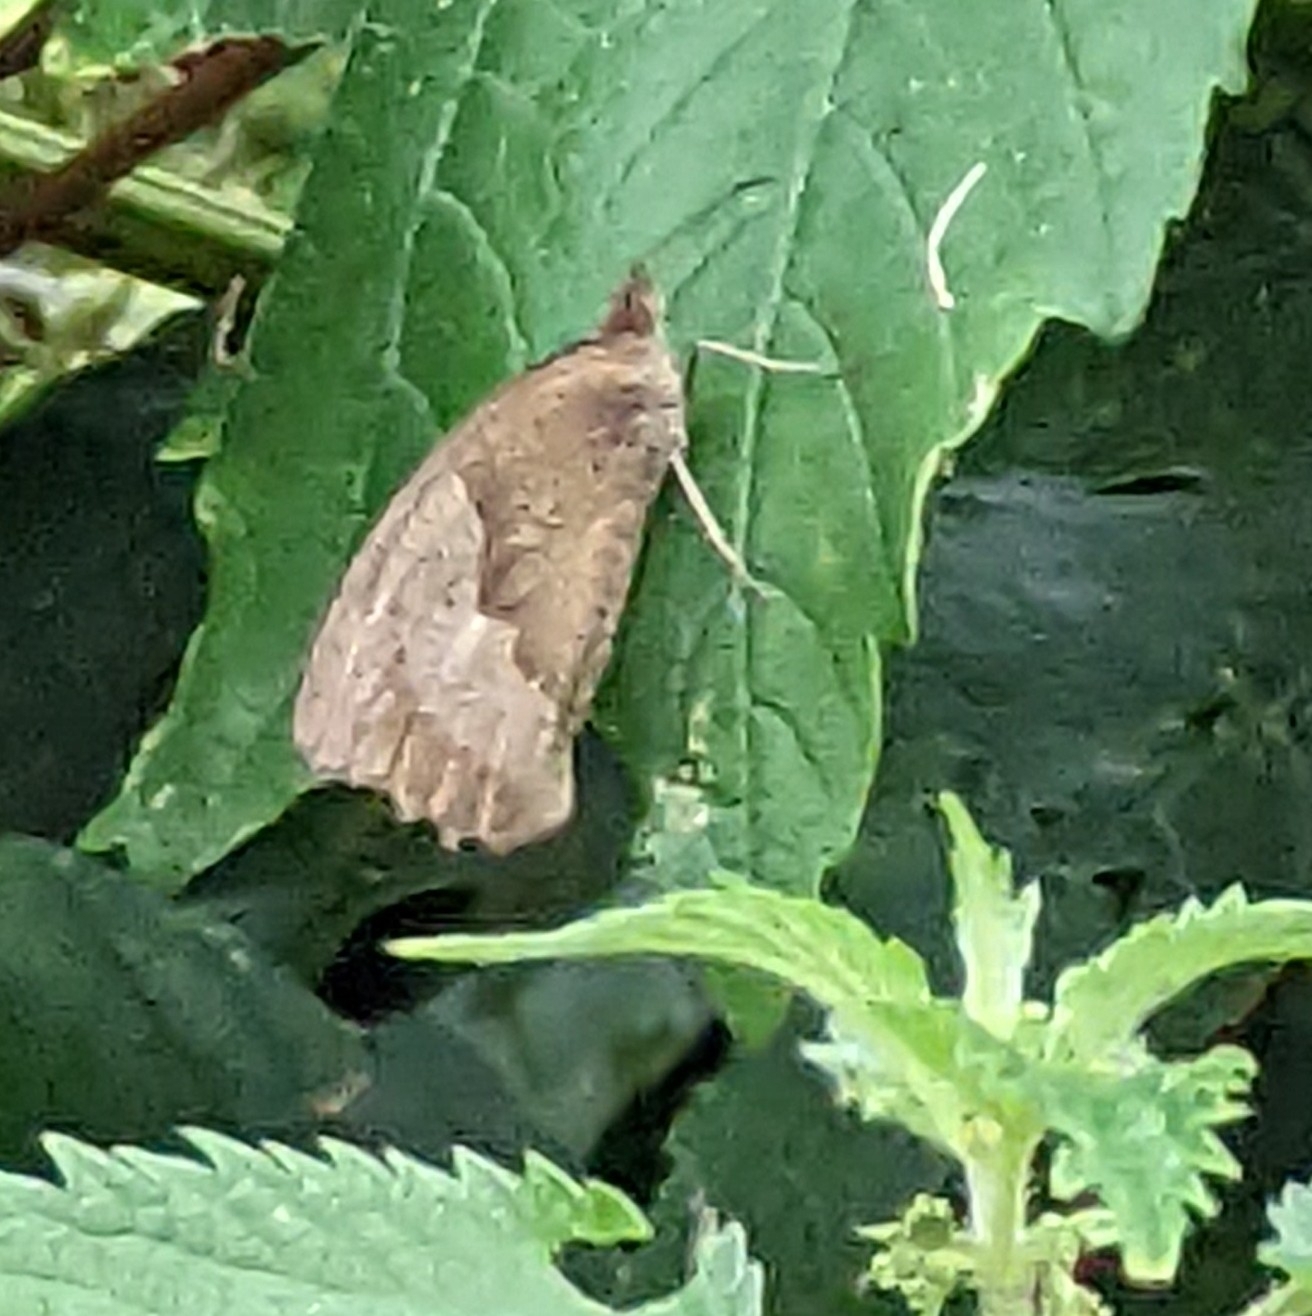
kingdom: Animalia
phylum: Arthropoda
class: Insecta
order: Lepidoptera
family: Nymphalidae
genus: Maniola
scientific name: Maniola jurtina
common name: Meadow brown
